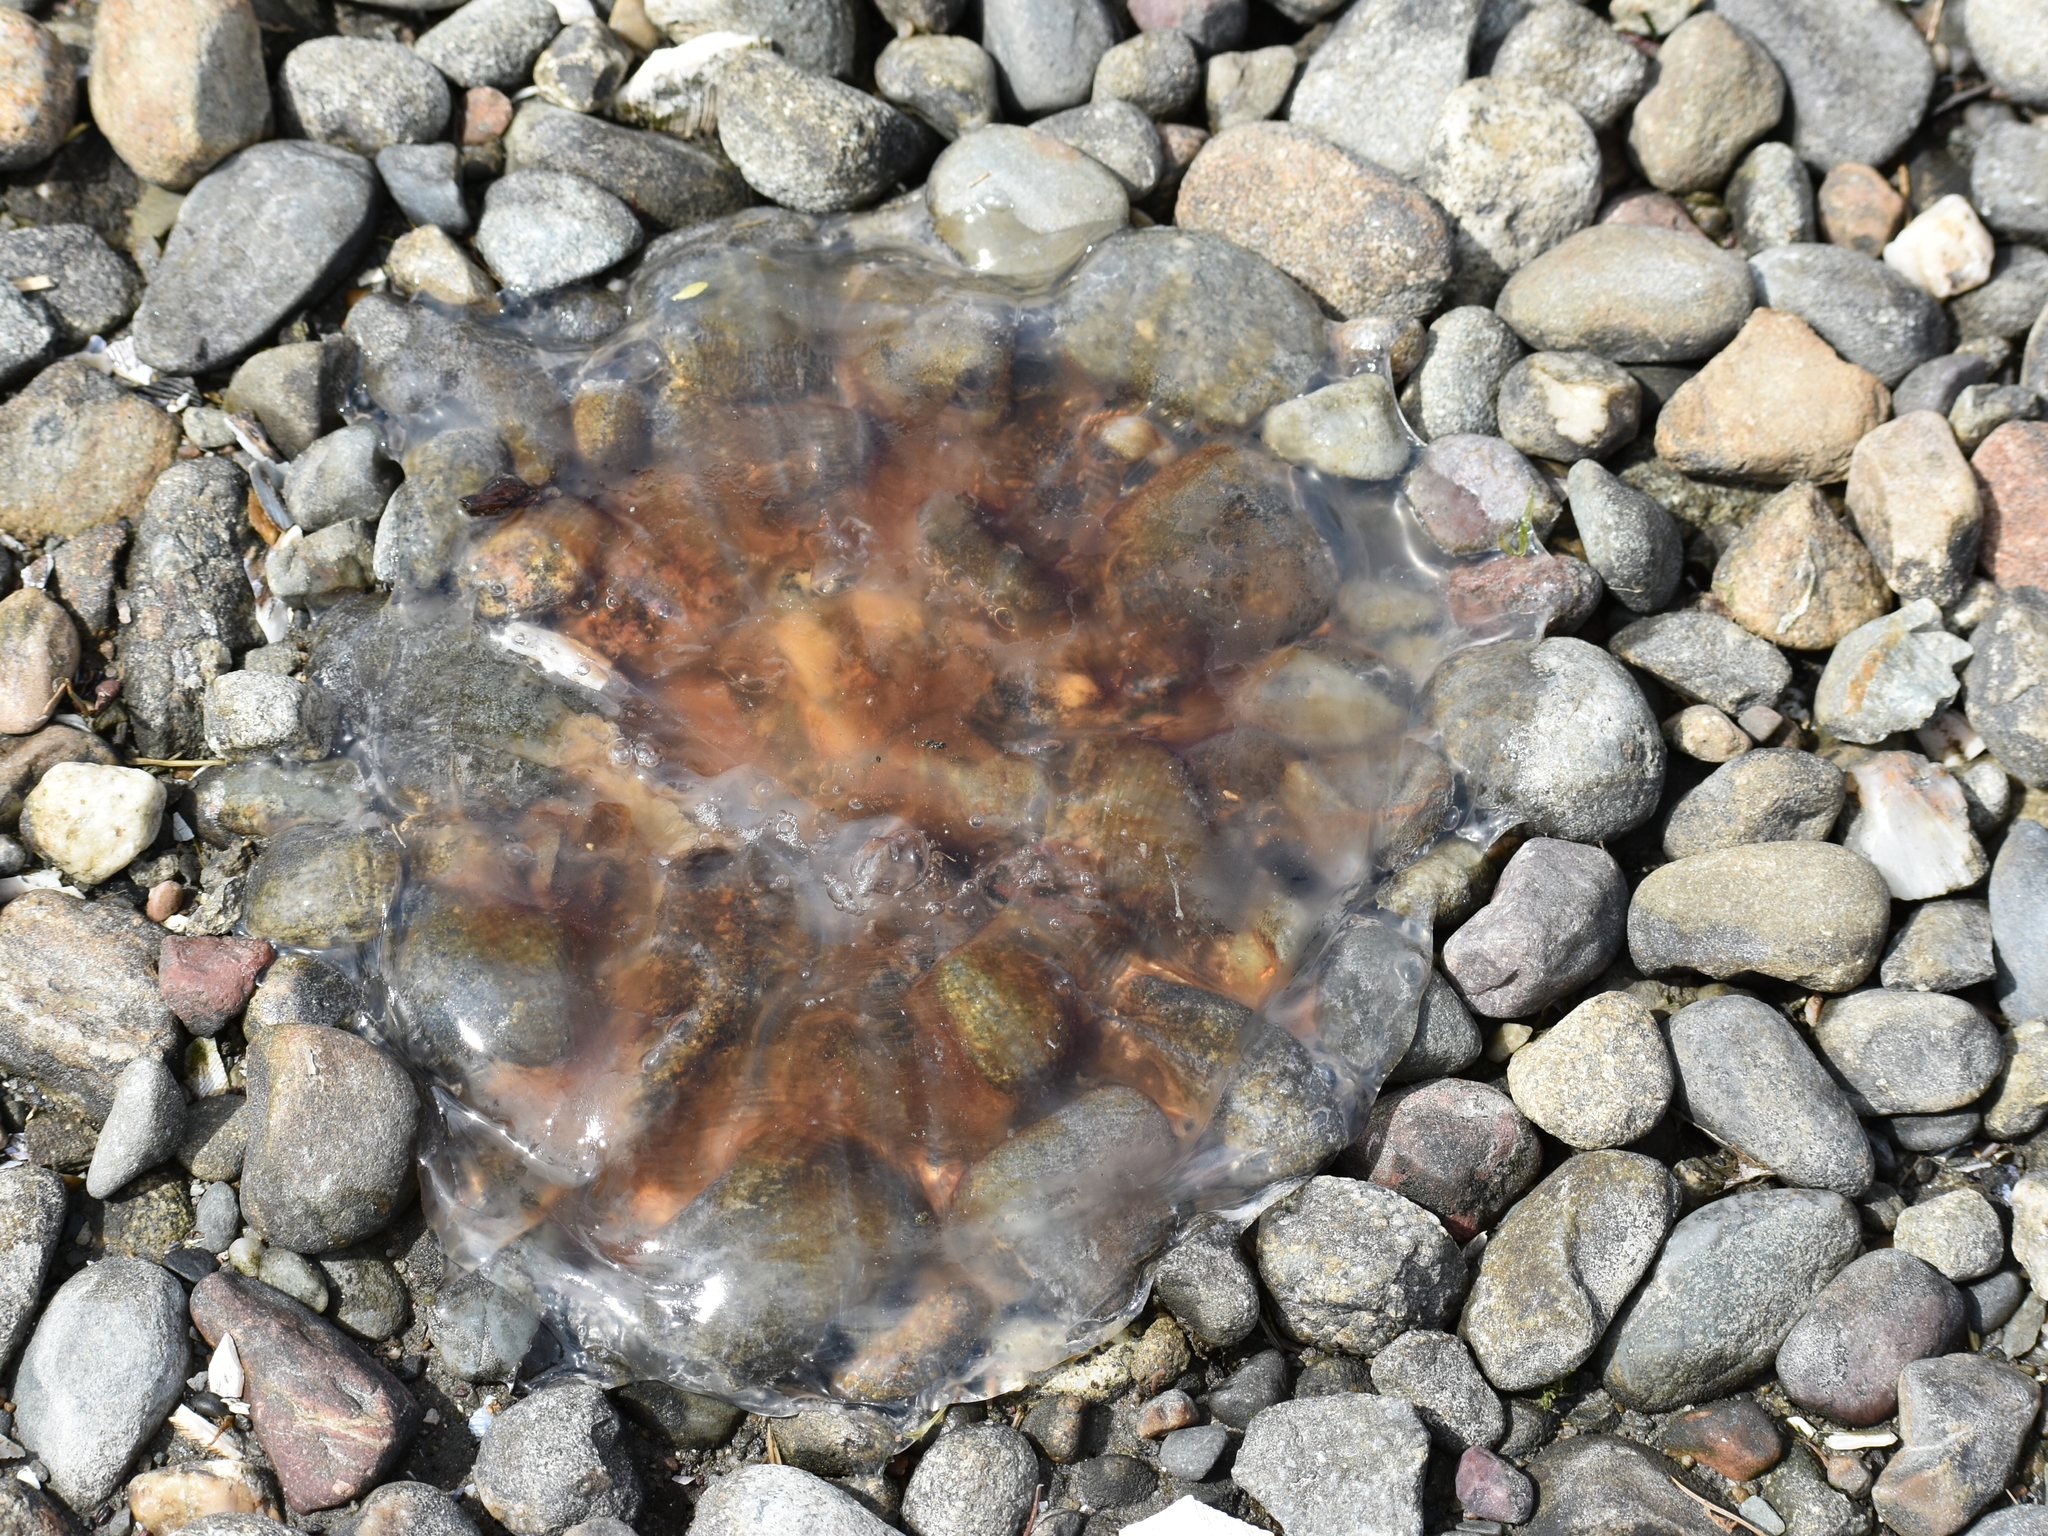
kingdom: Animalia
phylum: Cnidaria
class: Scyphozoa
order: Semaeostomeae
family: Cyaneidae
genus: Cyanea
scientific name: Cyanea fulva
